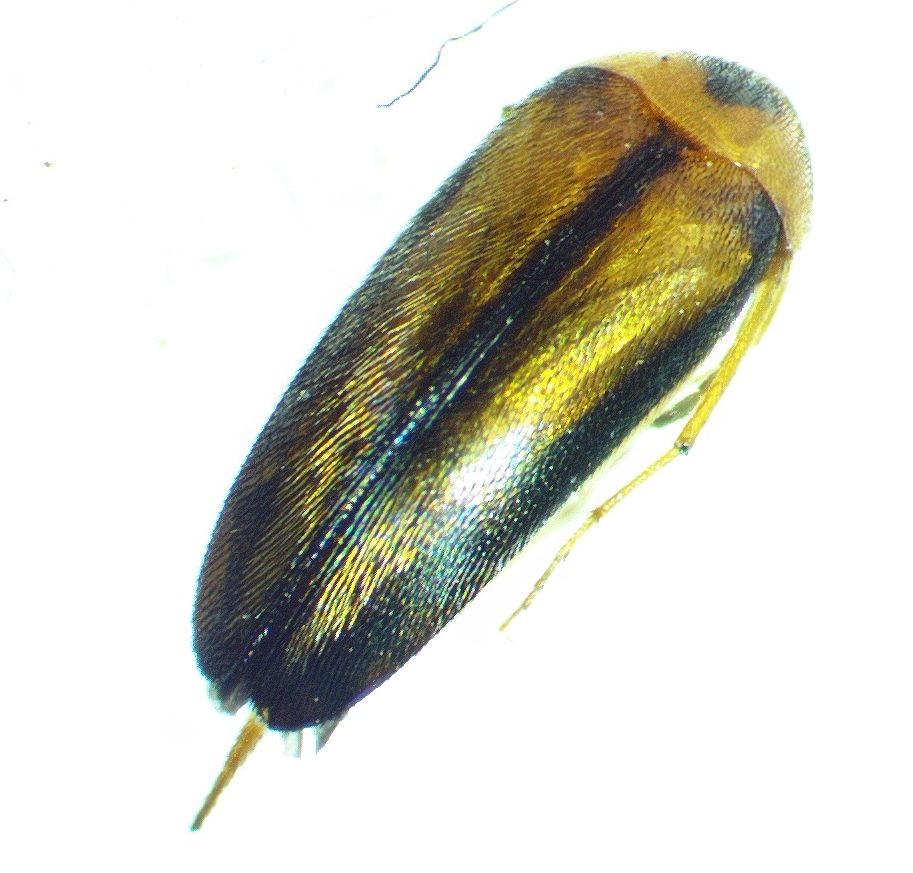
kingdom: Animalia
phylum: Arthropoda
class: Insecta
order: Coleoptera
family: Mordellidae
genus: Mordellistena
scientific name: Mordellistena limbalis
